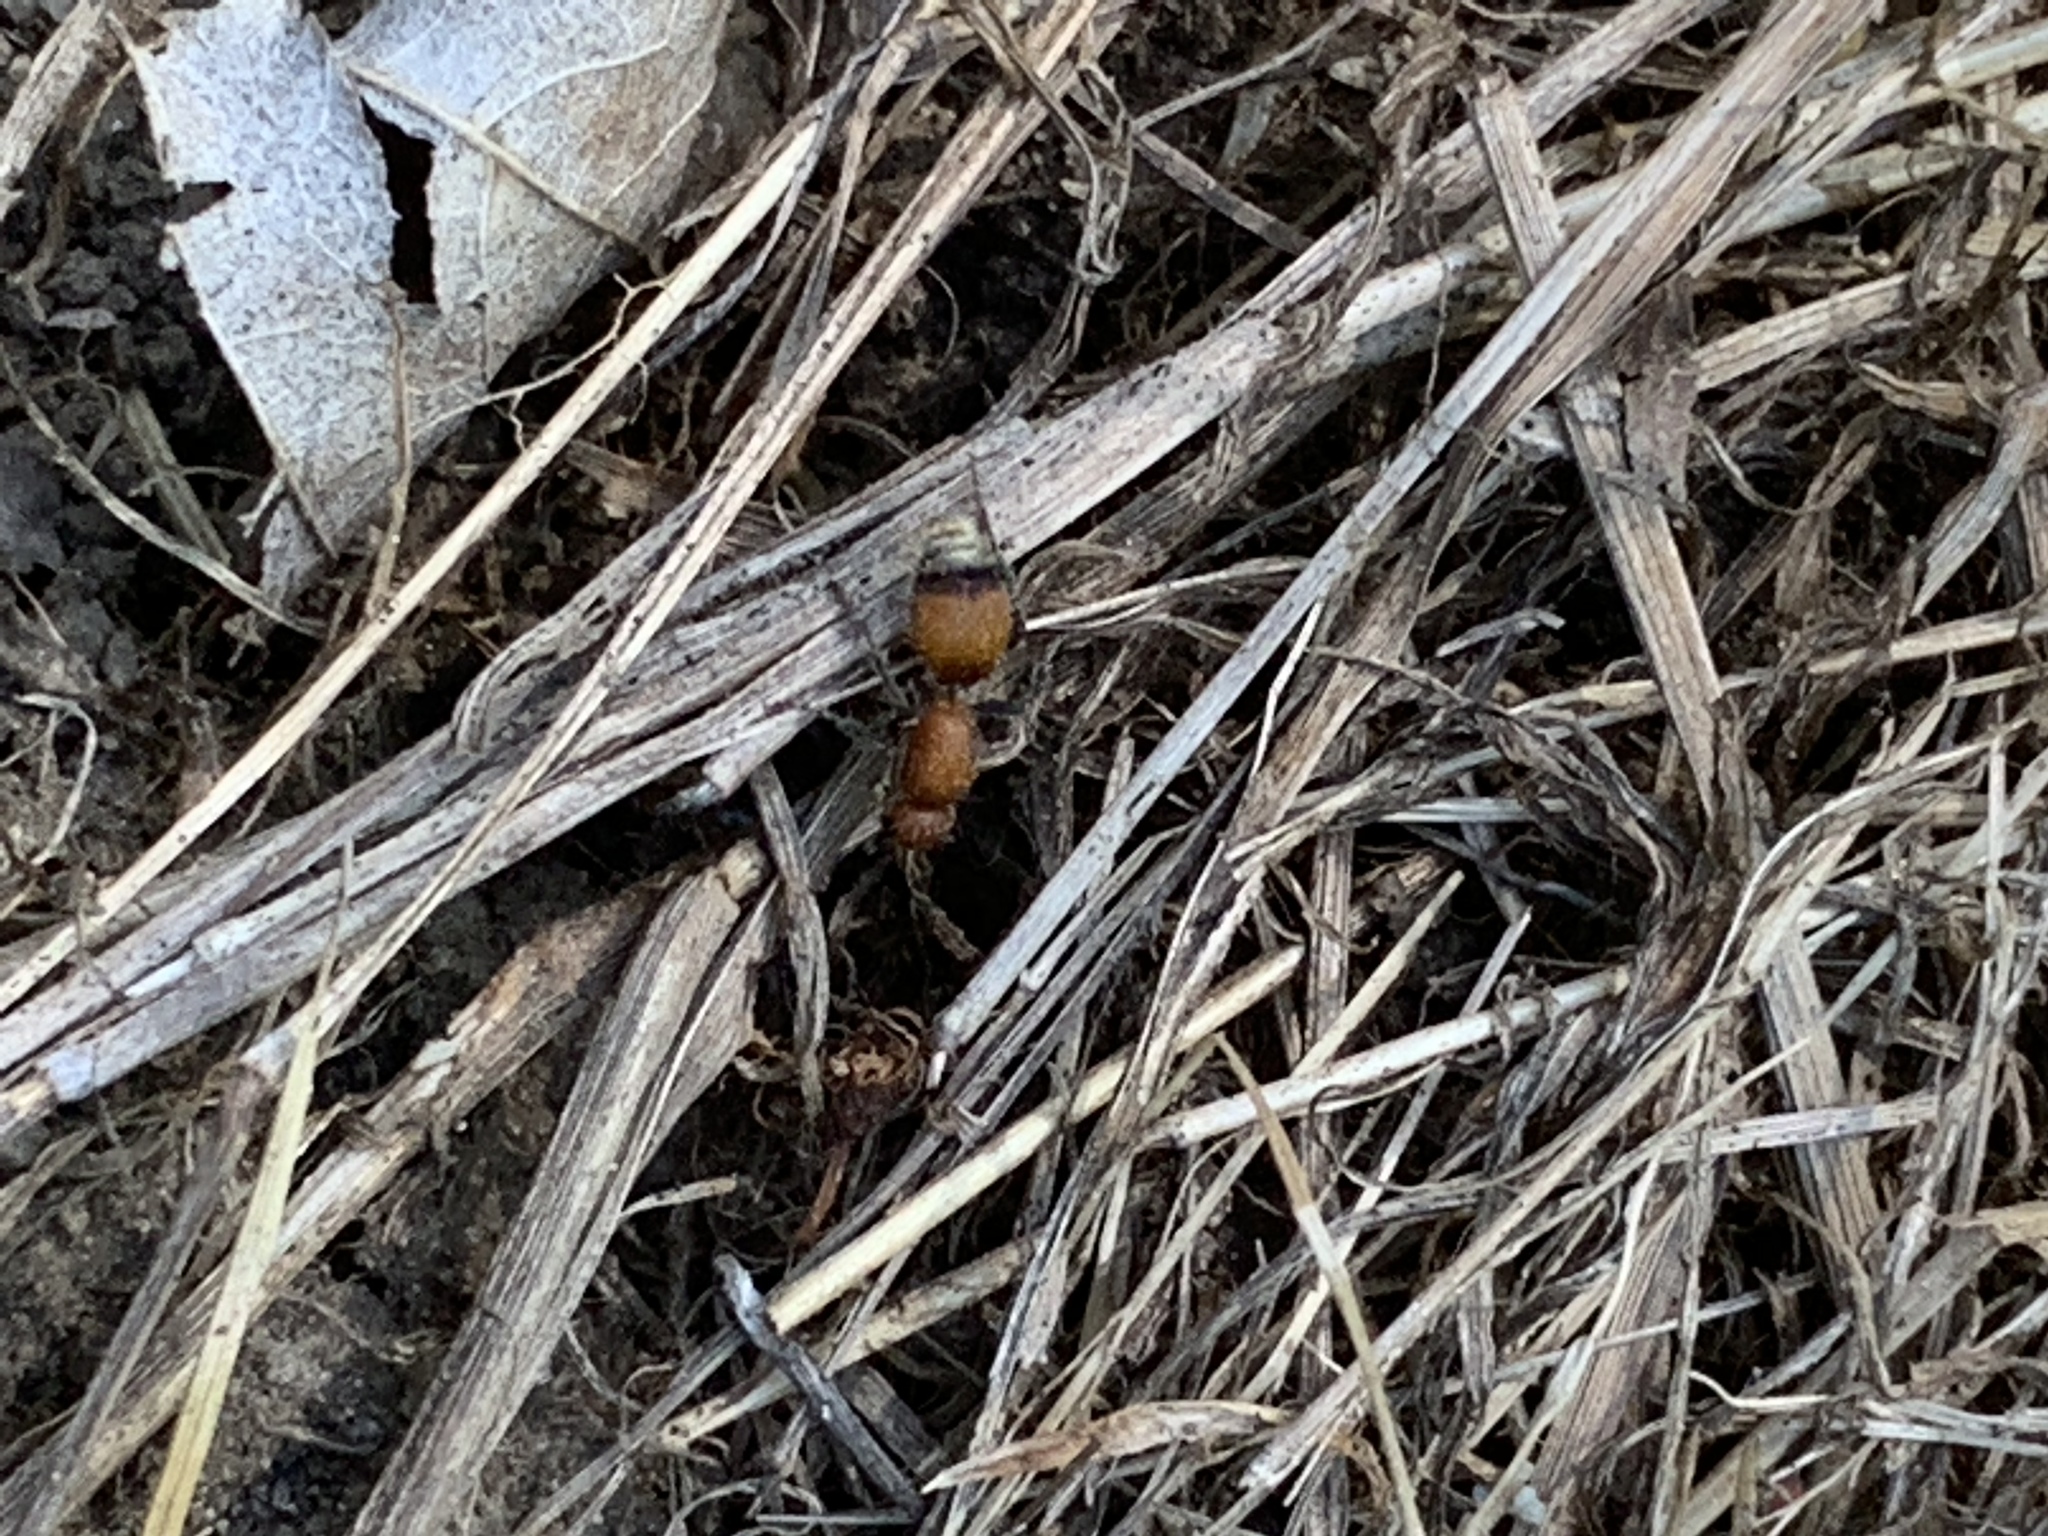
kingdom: Animalia
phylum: Arthropoda
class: Insecta
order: Hymenoptera
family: Mutillidae
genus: Dasymutilla
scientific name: Dasymutilla
